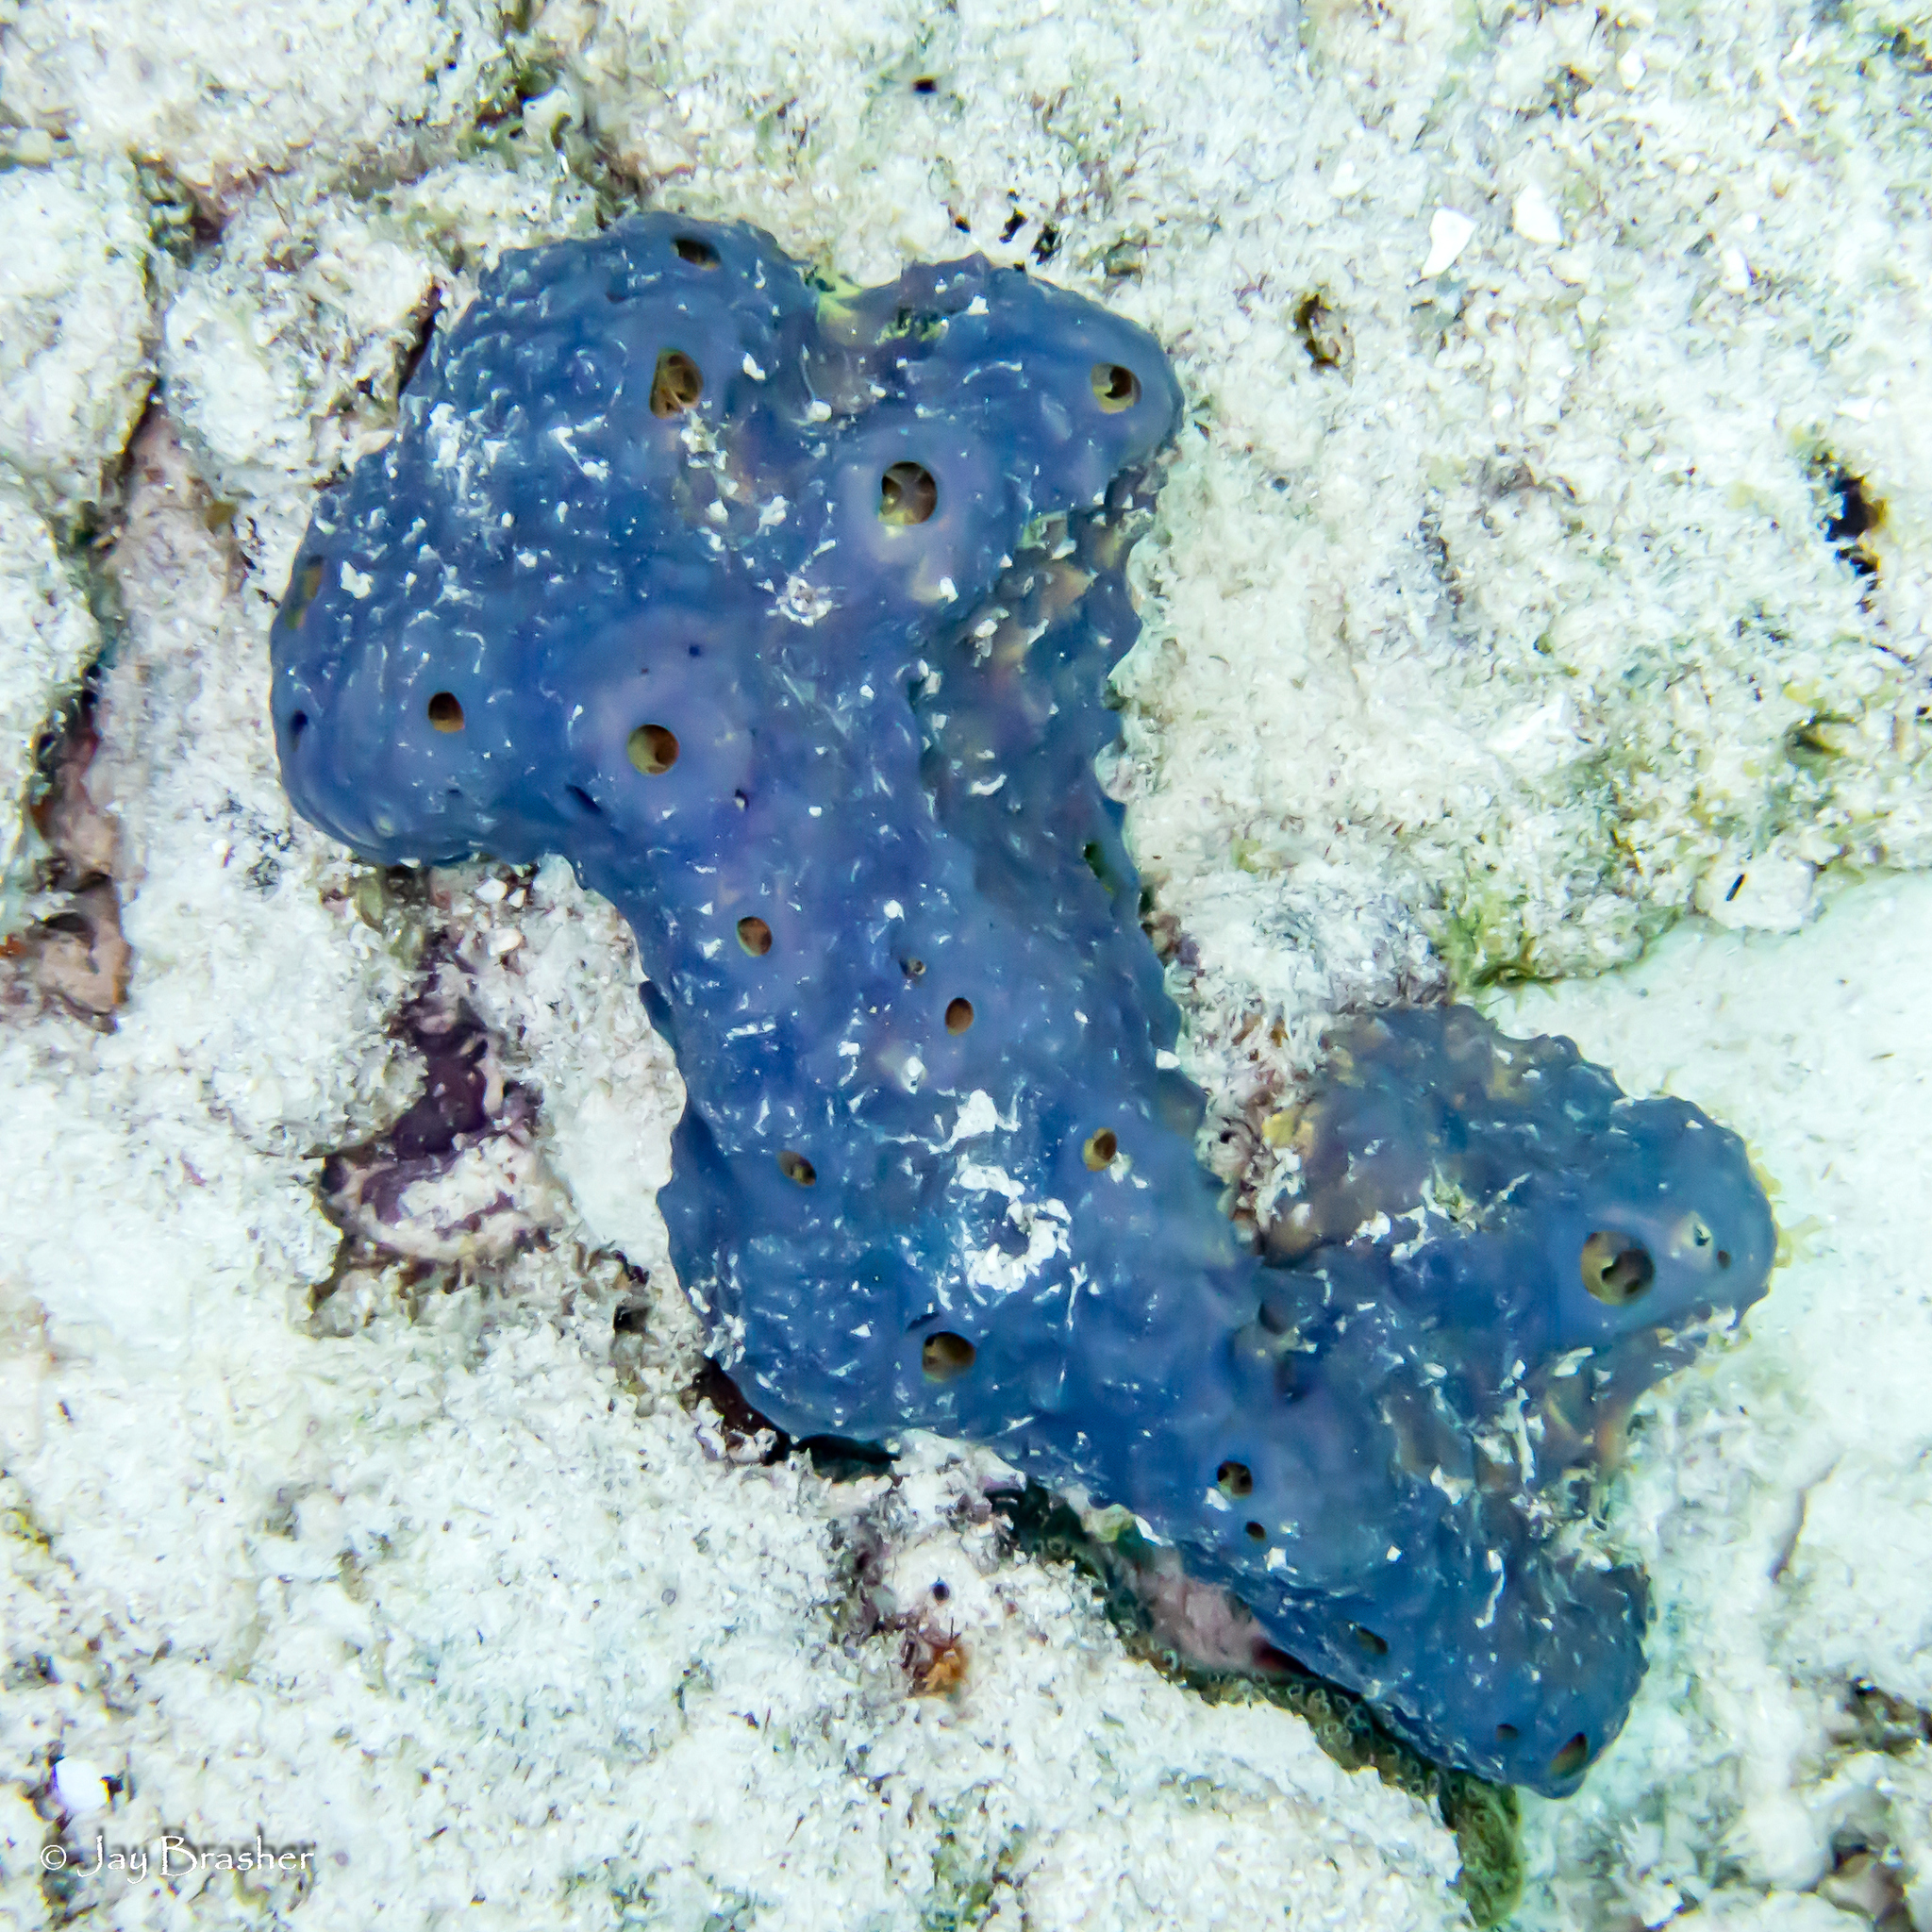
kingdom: Animalia
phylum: Porifera
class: Demospongiae
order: Verongiida
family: Aplysinidae
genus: Aiolochroia
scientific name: Aiolochroia crassa
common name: Branching tube sponge
